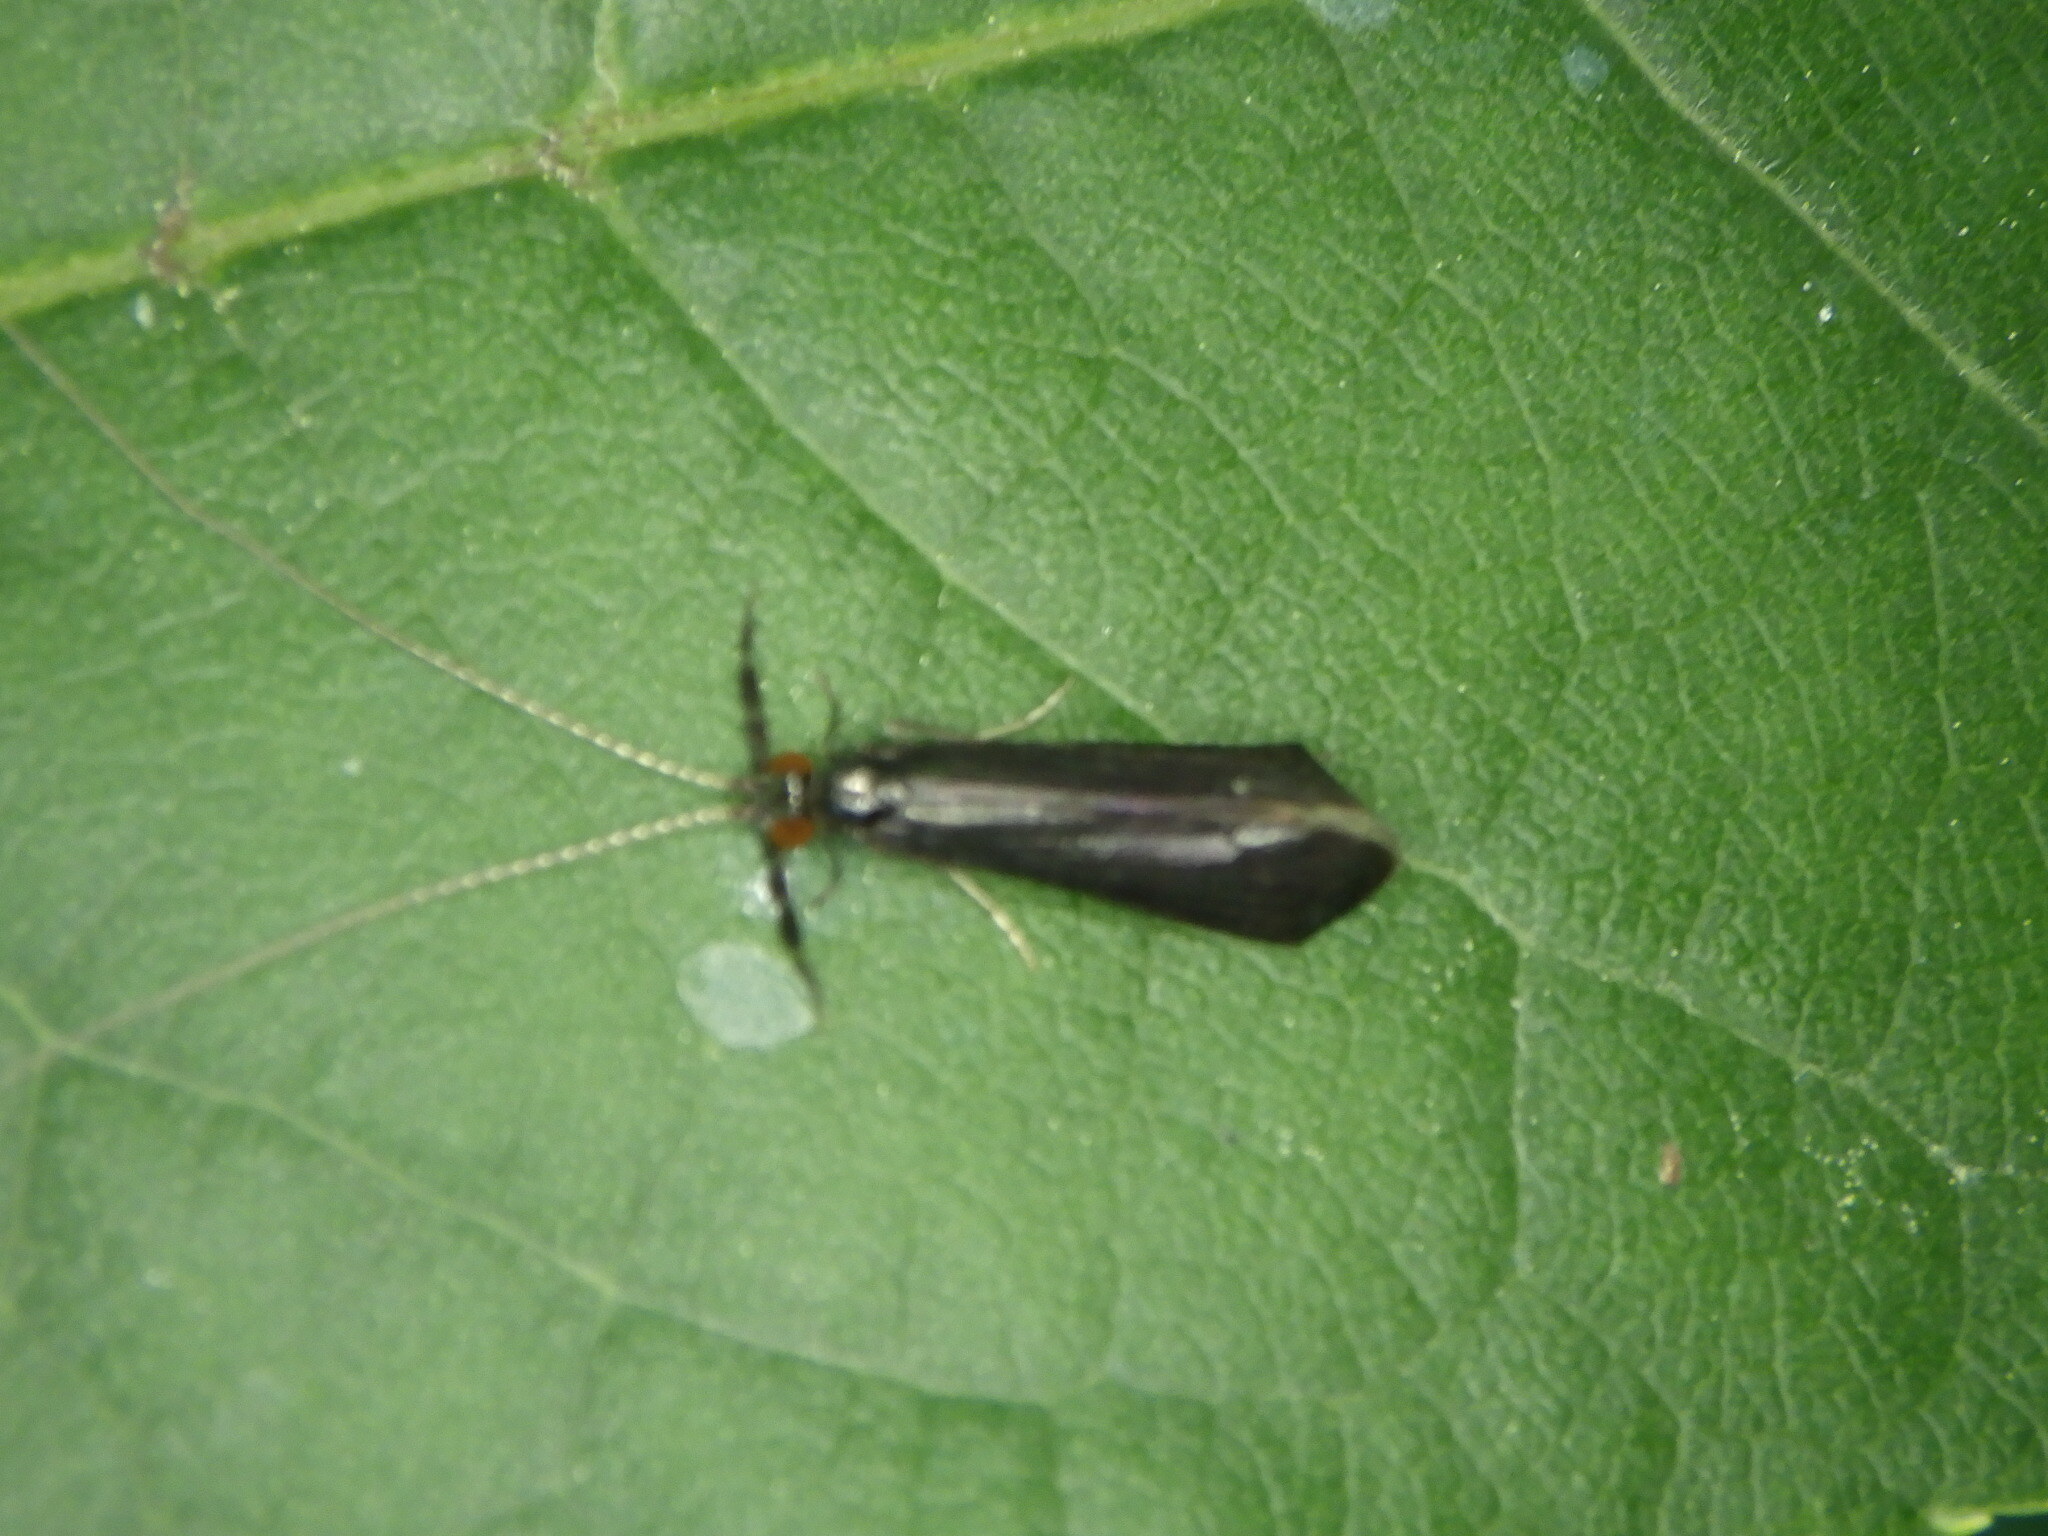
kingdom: Animalia
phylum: Arthropoda
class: Insecta
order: Trichoptera
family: Leptoceridae
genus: Mystacides
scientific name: Mystacides sepulchralis
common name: Black dancer caddisfly
